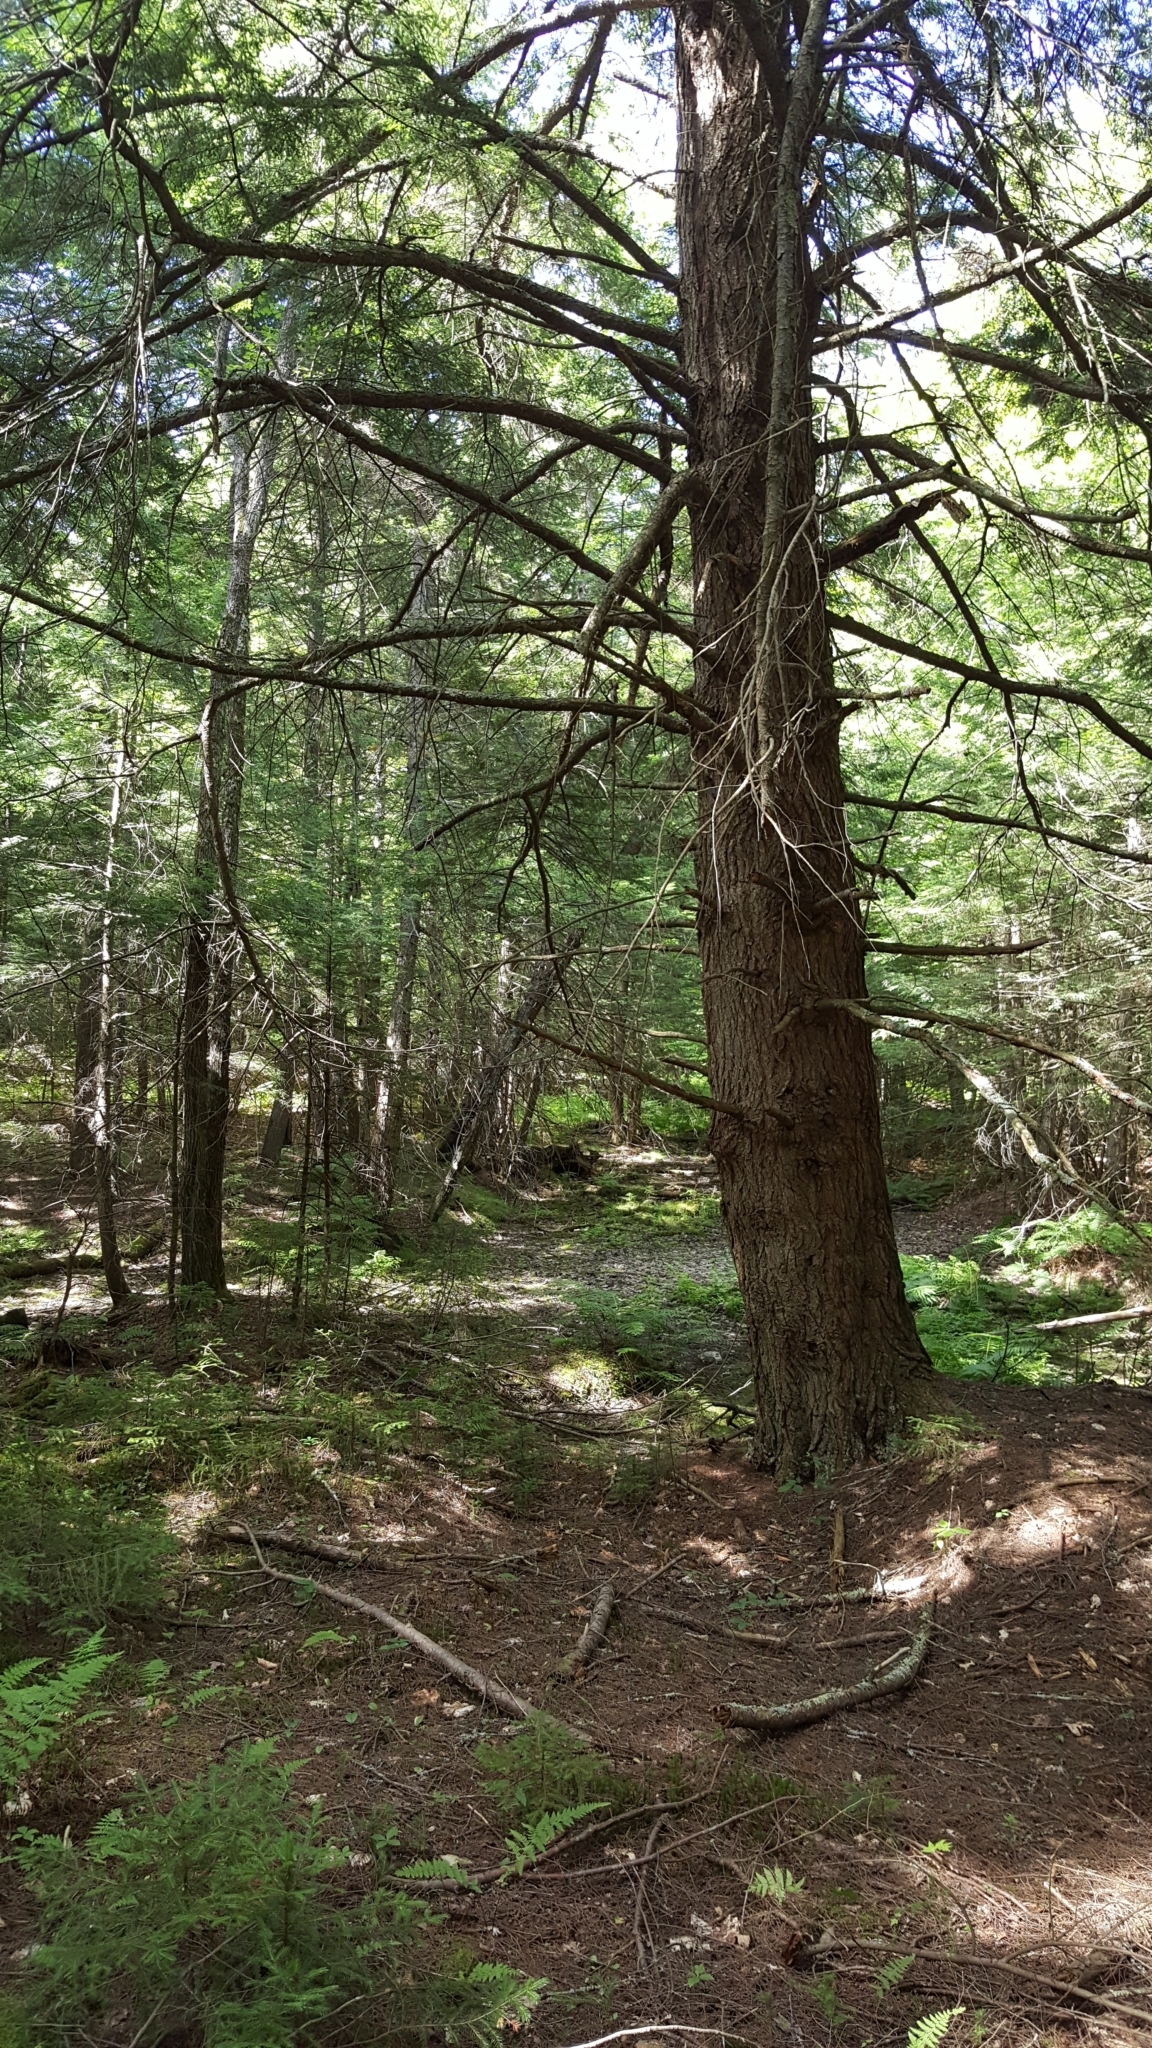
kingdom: Plantae
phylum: Tracheophyta
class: Pinopsida
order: Pinales
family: Pinaceae
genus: Tsuga
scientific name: Tsuga canadensis
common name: Eastern hemlock
